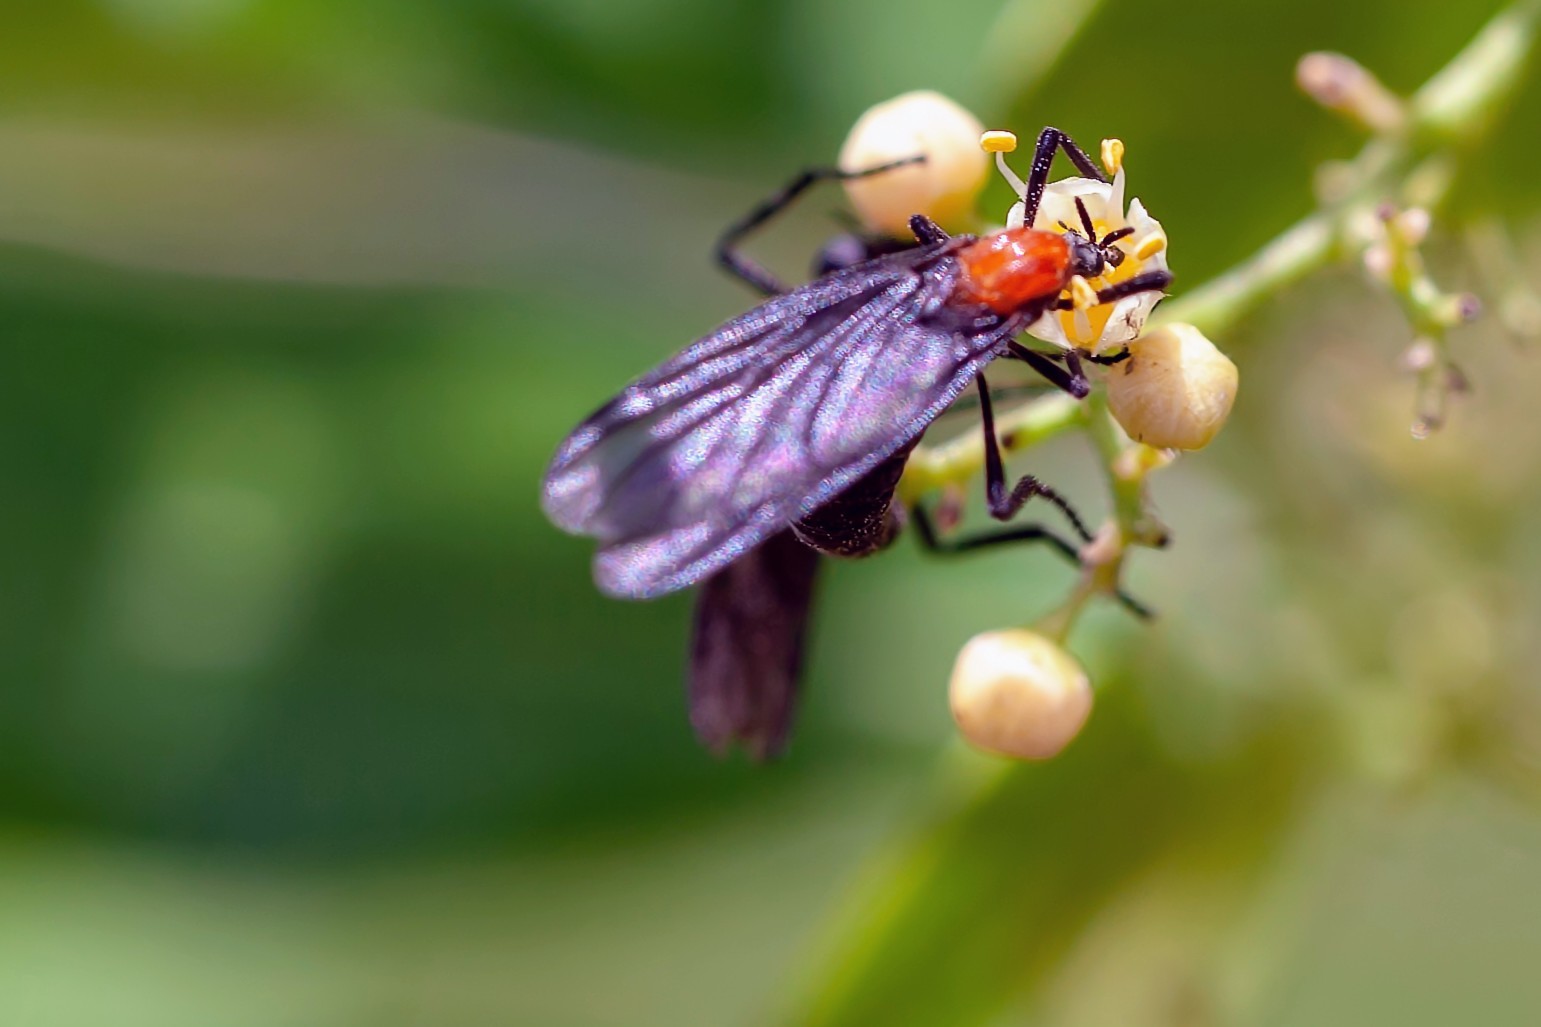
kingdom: Animalia
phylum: Arthropoda
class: Insecta
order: Diptera
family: Bibionidae
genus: Plecia
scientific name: Plecia nearctica
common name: March fly
